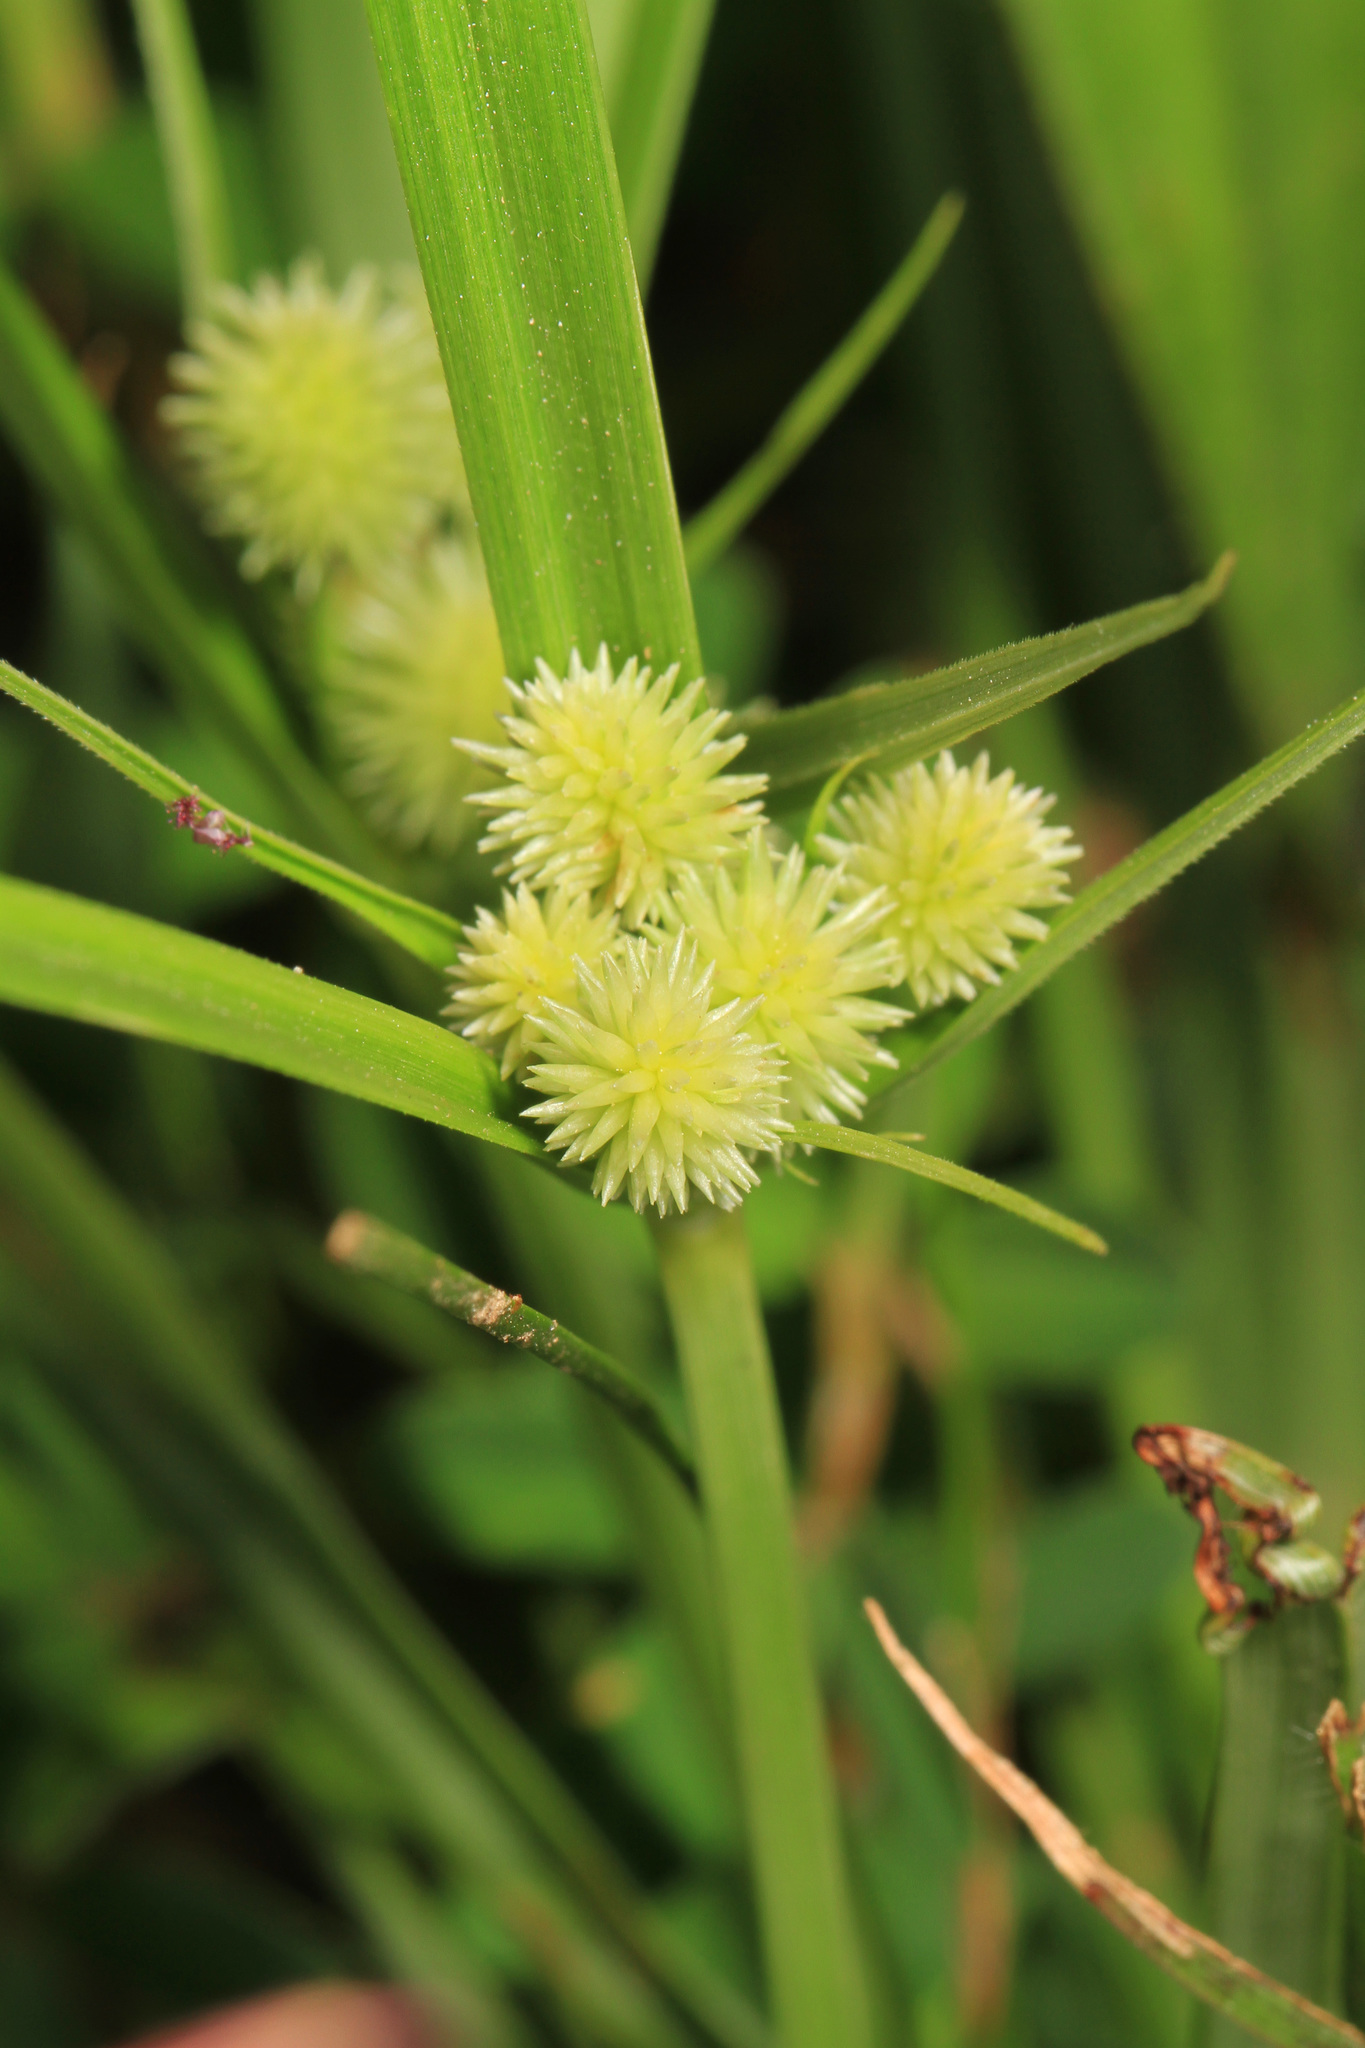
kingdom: Plantae
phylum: Tracheophyta
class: Liliopsida
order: Poales
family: Cyperaceae
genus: Cyperus
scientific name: Cyperus echinatus
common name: Teasel sedge
